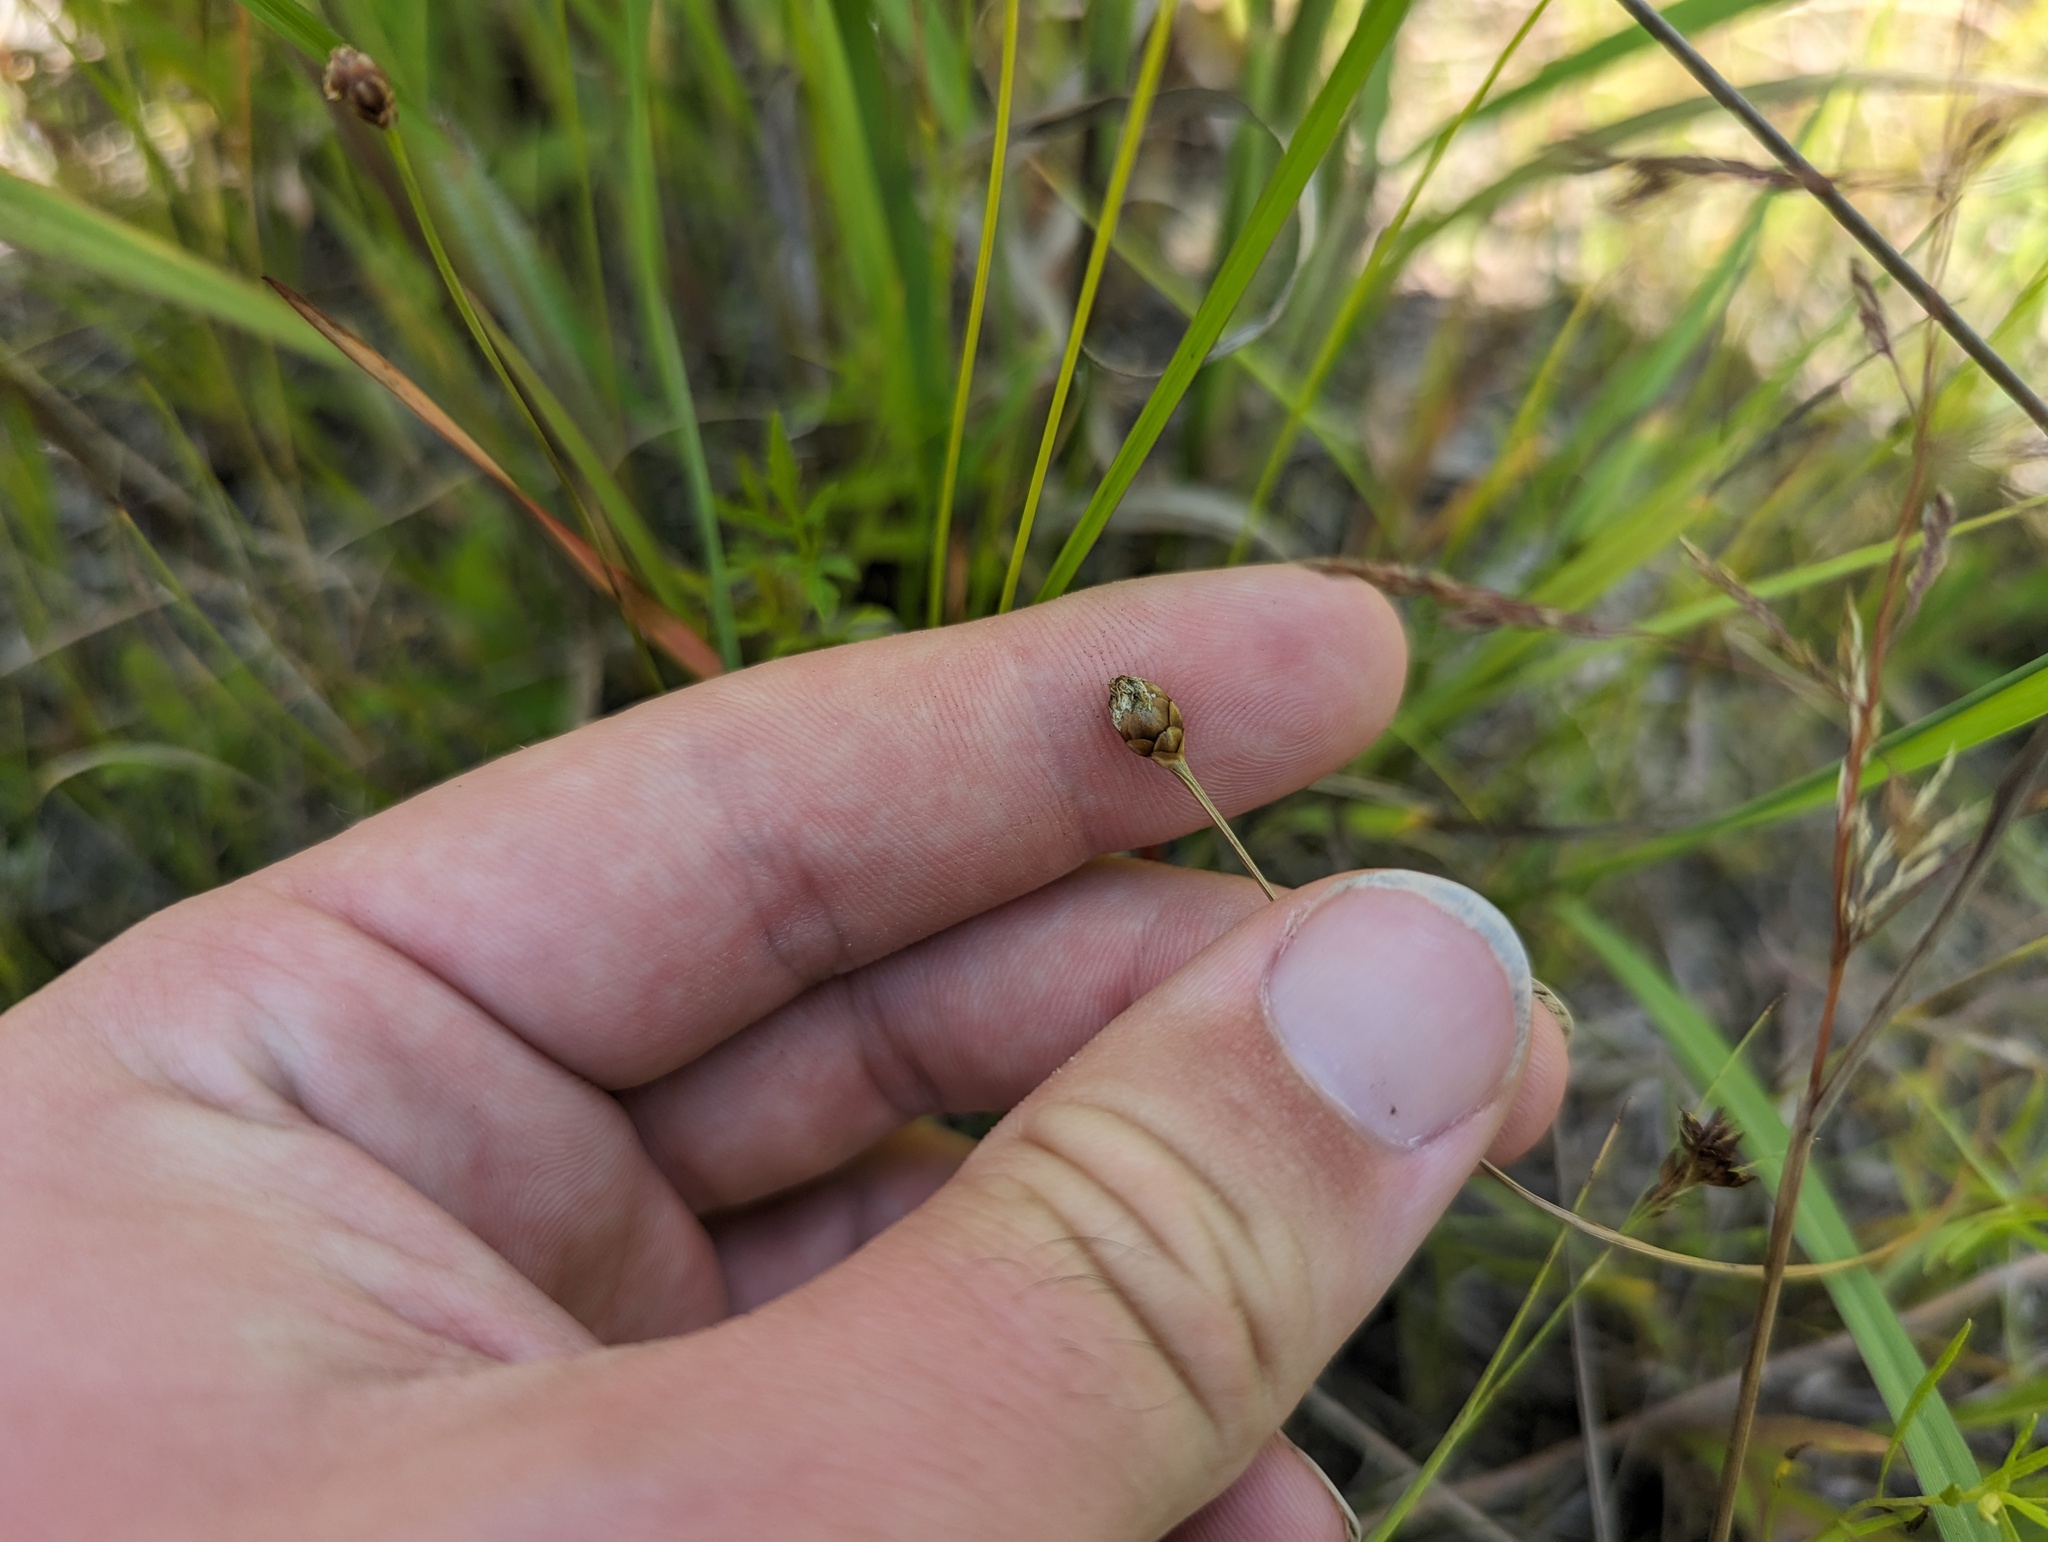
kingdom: Plantae
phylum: Tracheophyta
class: Liliopsida
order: Poales
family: Xyridaceae
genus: Xyris
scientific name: Xyris torta
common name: Common yelloweyed grass
